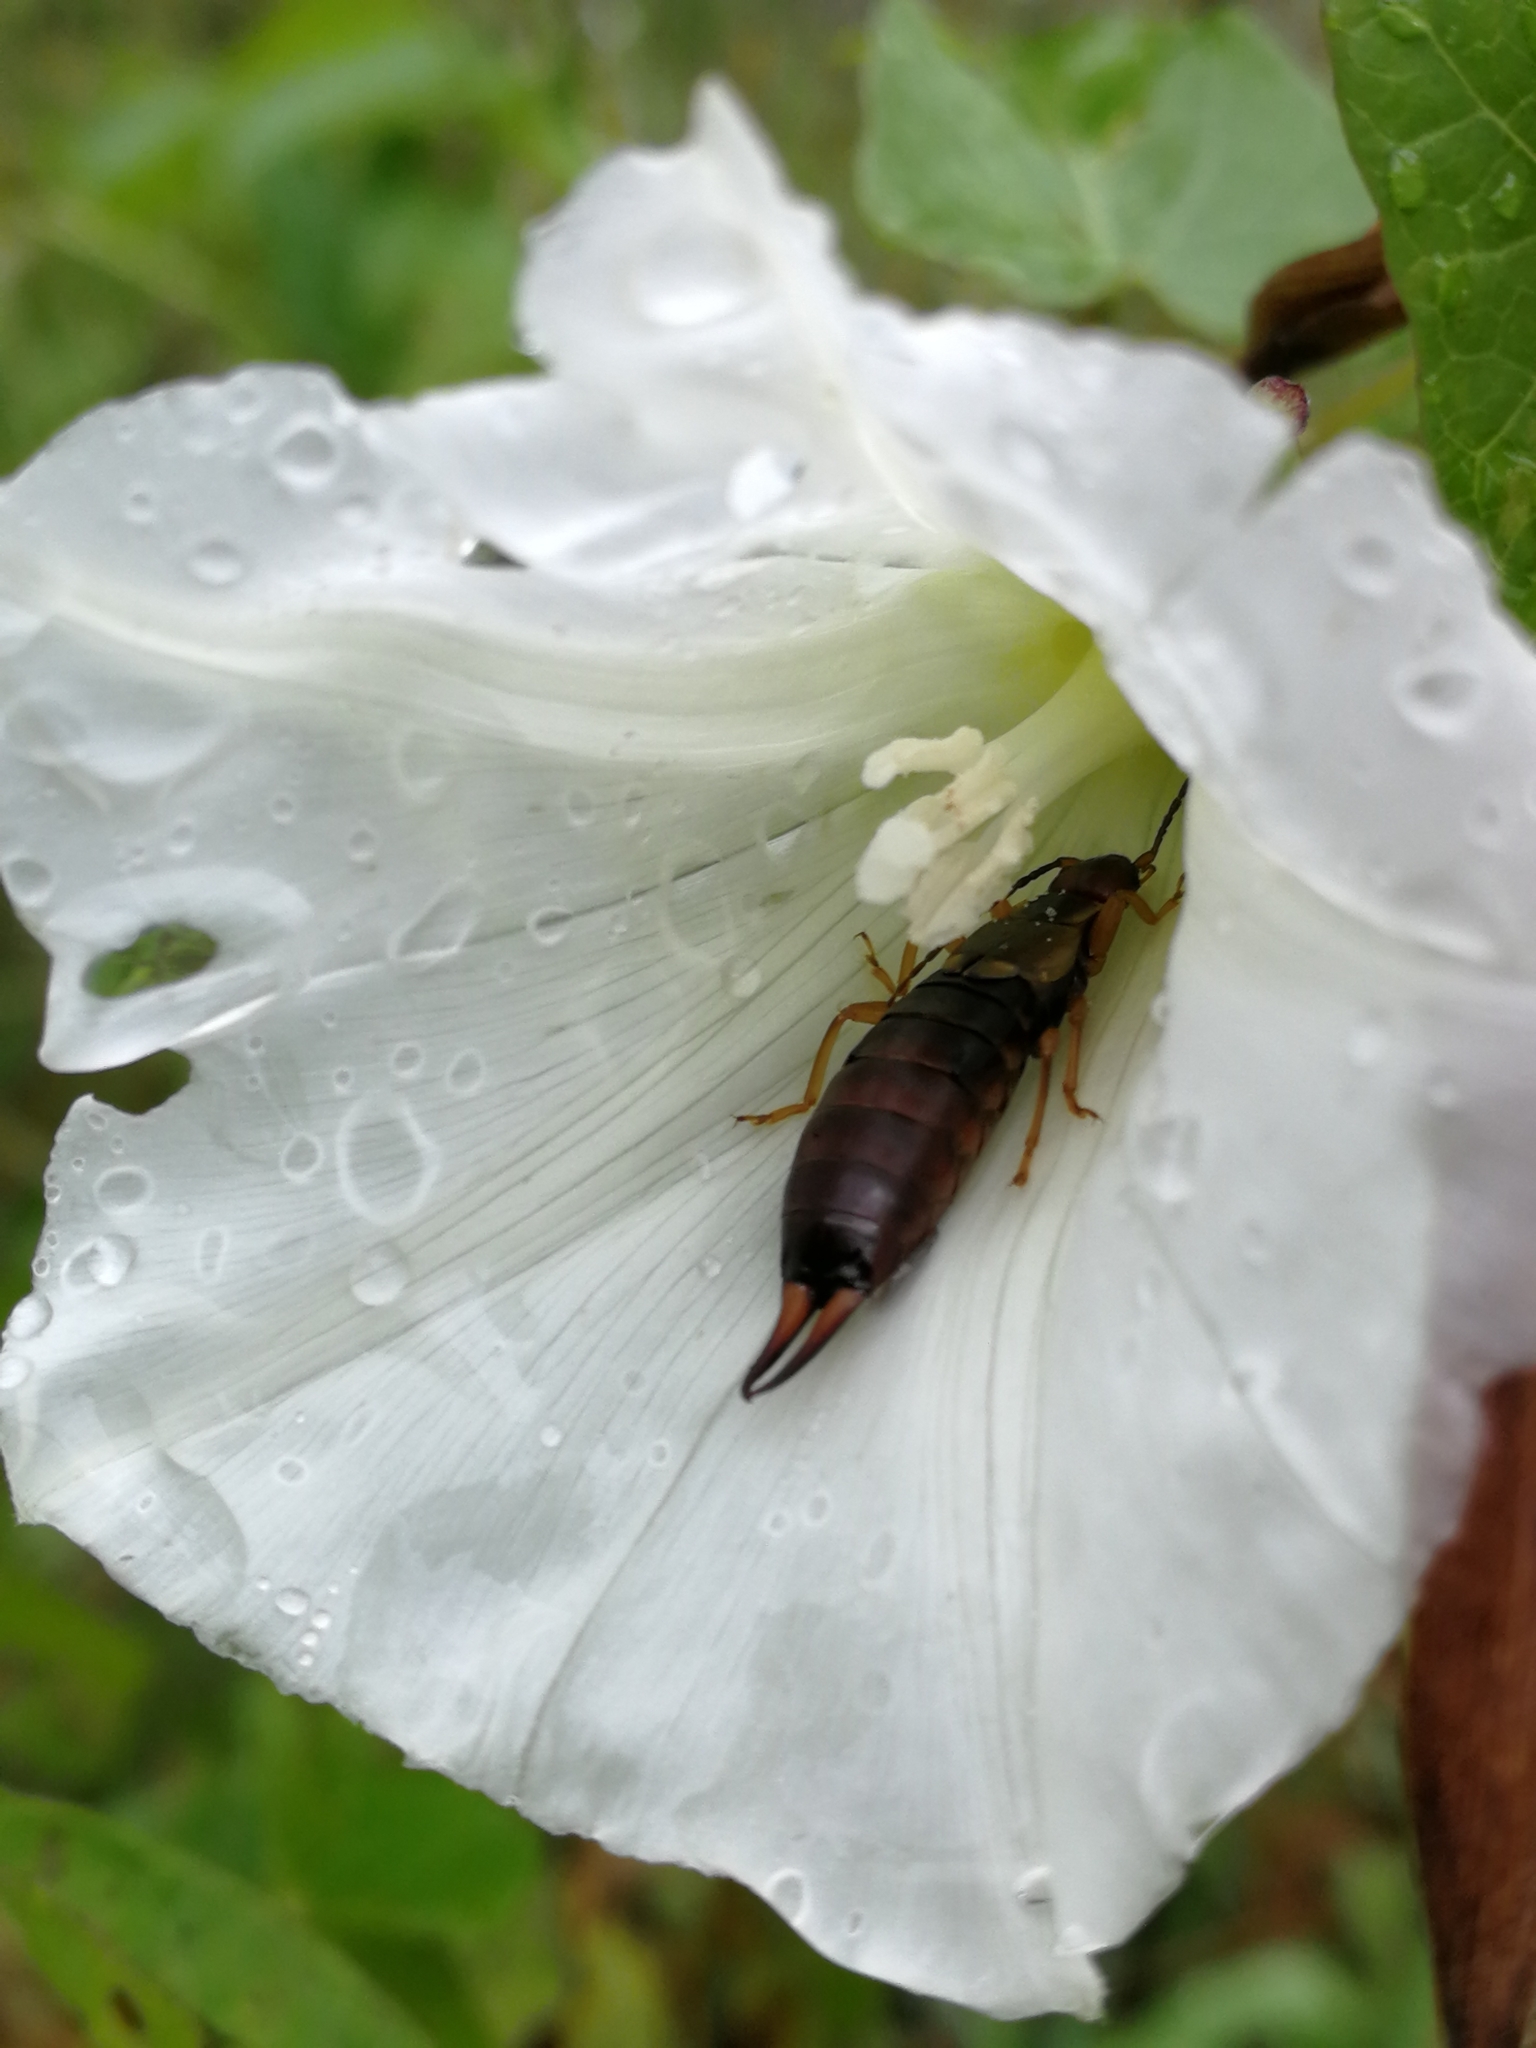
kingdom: Animalia
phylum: Arthropoda
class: Insecta
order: Dermaptera
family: Forficulidae
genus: Forficula
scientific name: Forficula
